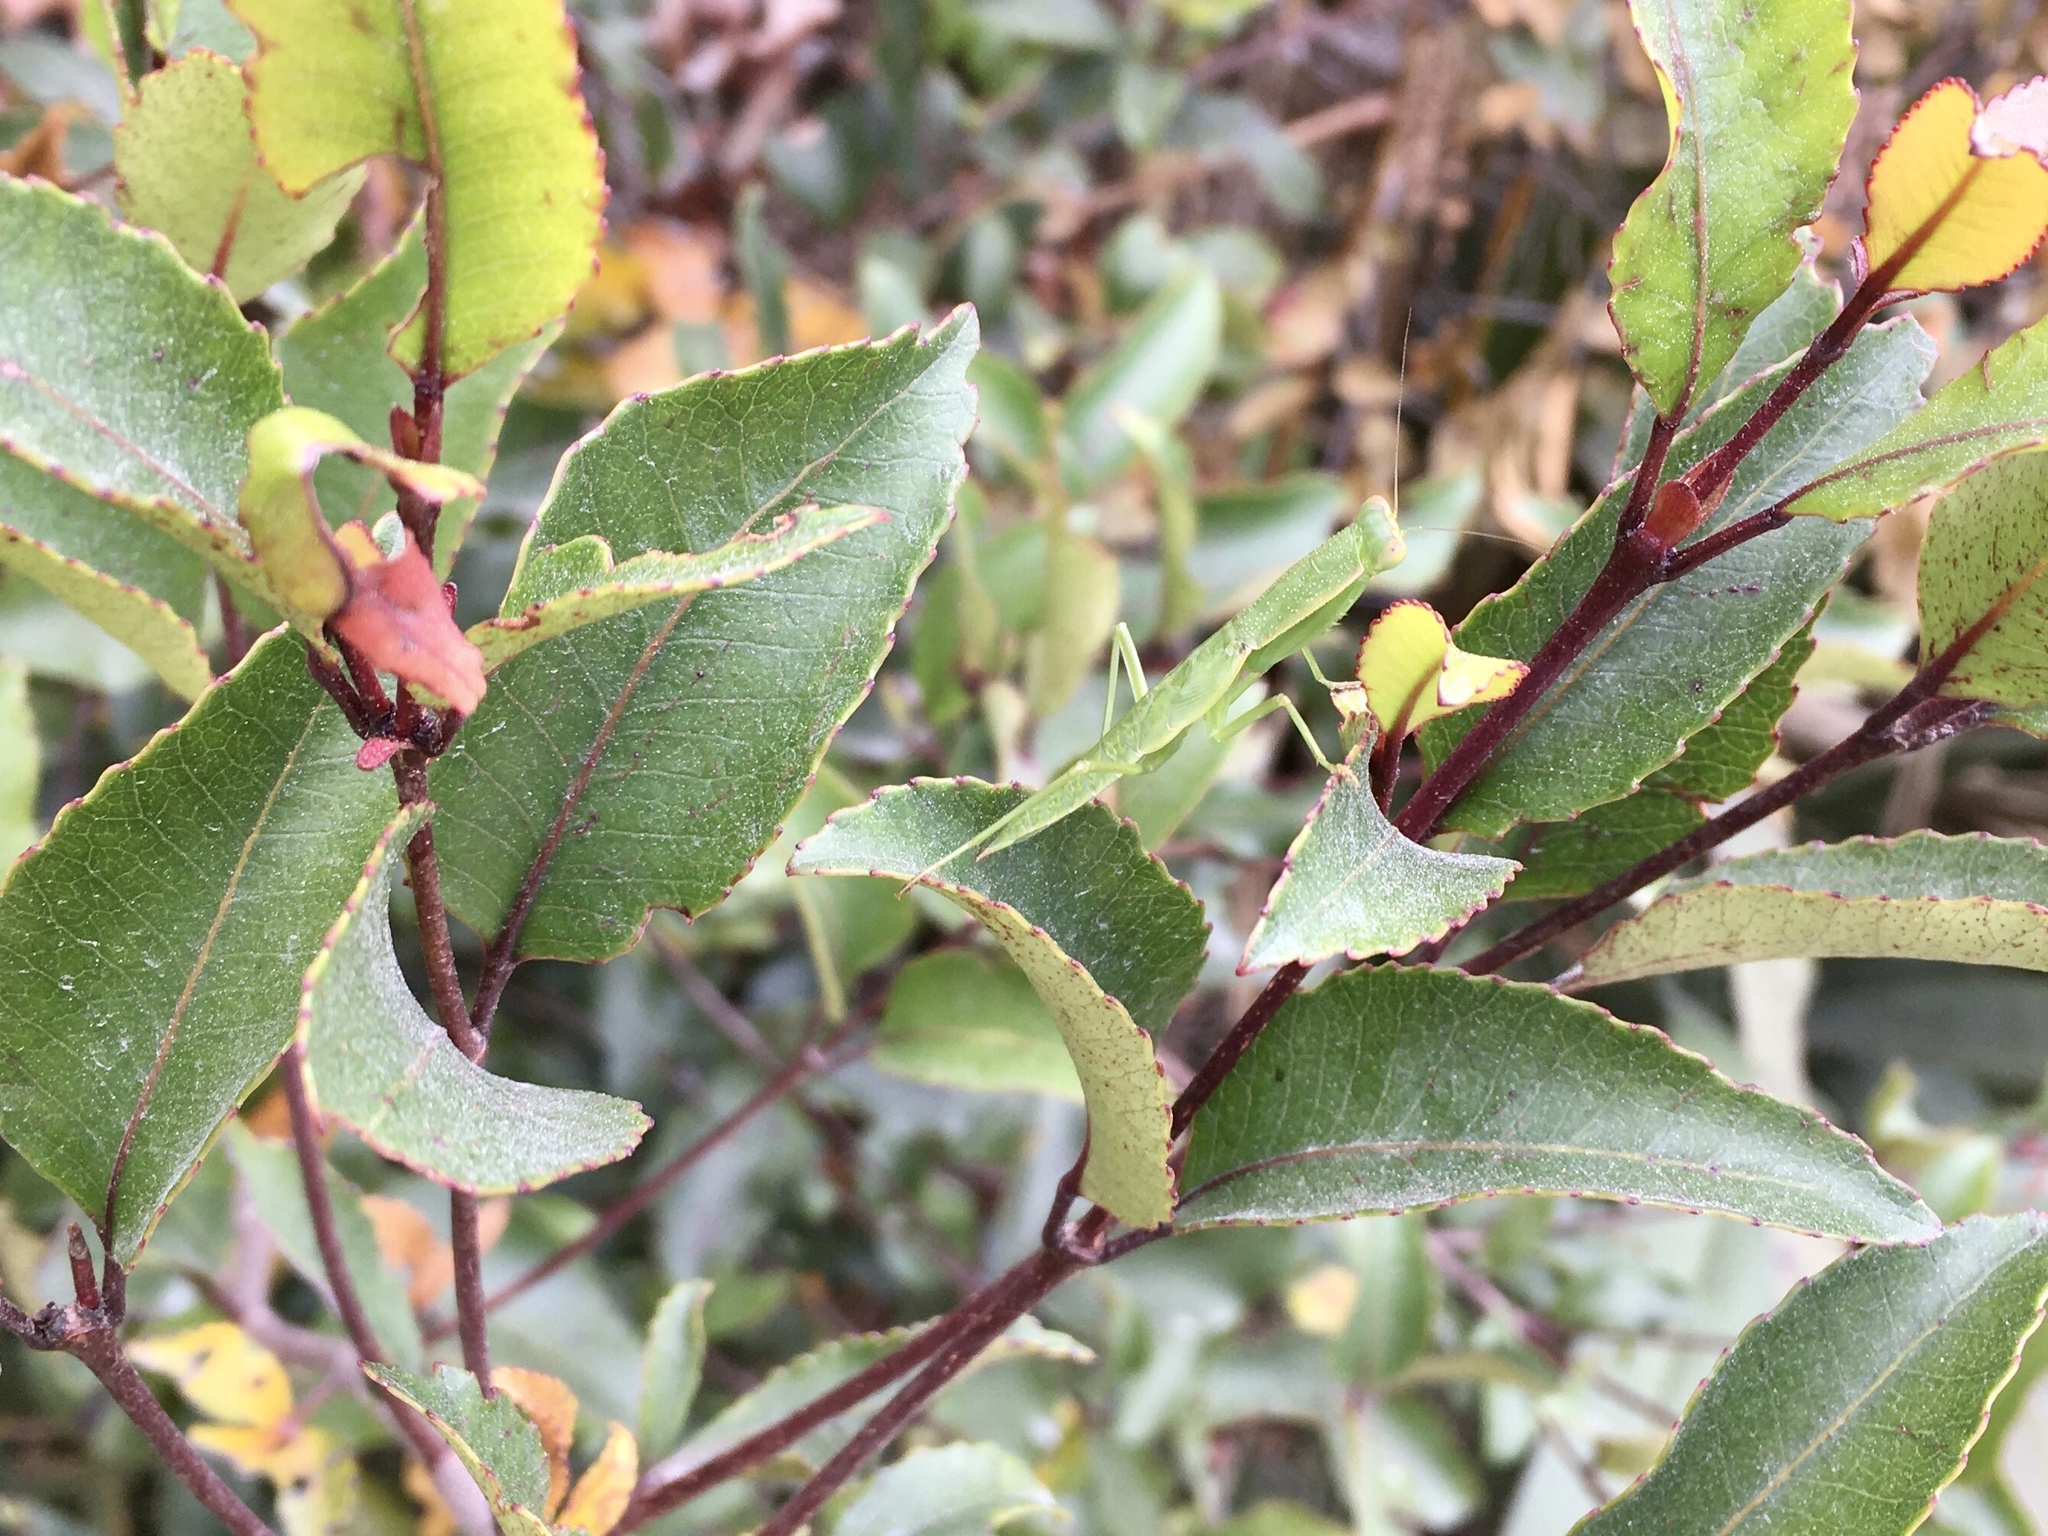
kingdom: Animalia
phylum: Arthropoda
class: Insecta
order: Mantodea
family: Mantidae
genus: Orthodera
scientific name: Orthodera novaezealandiae
